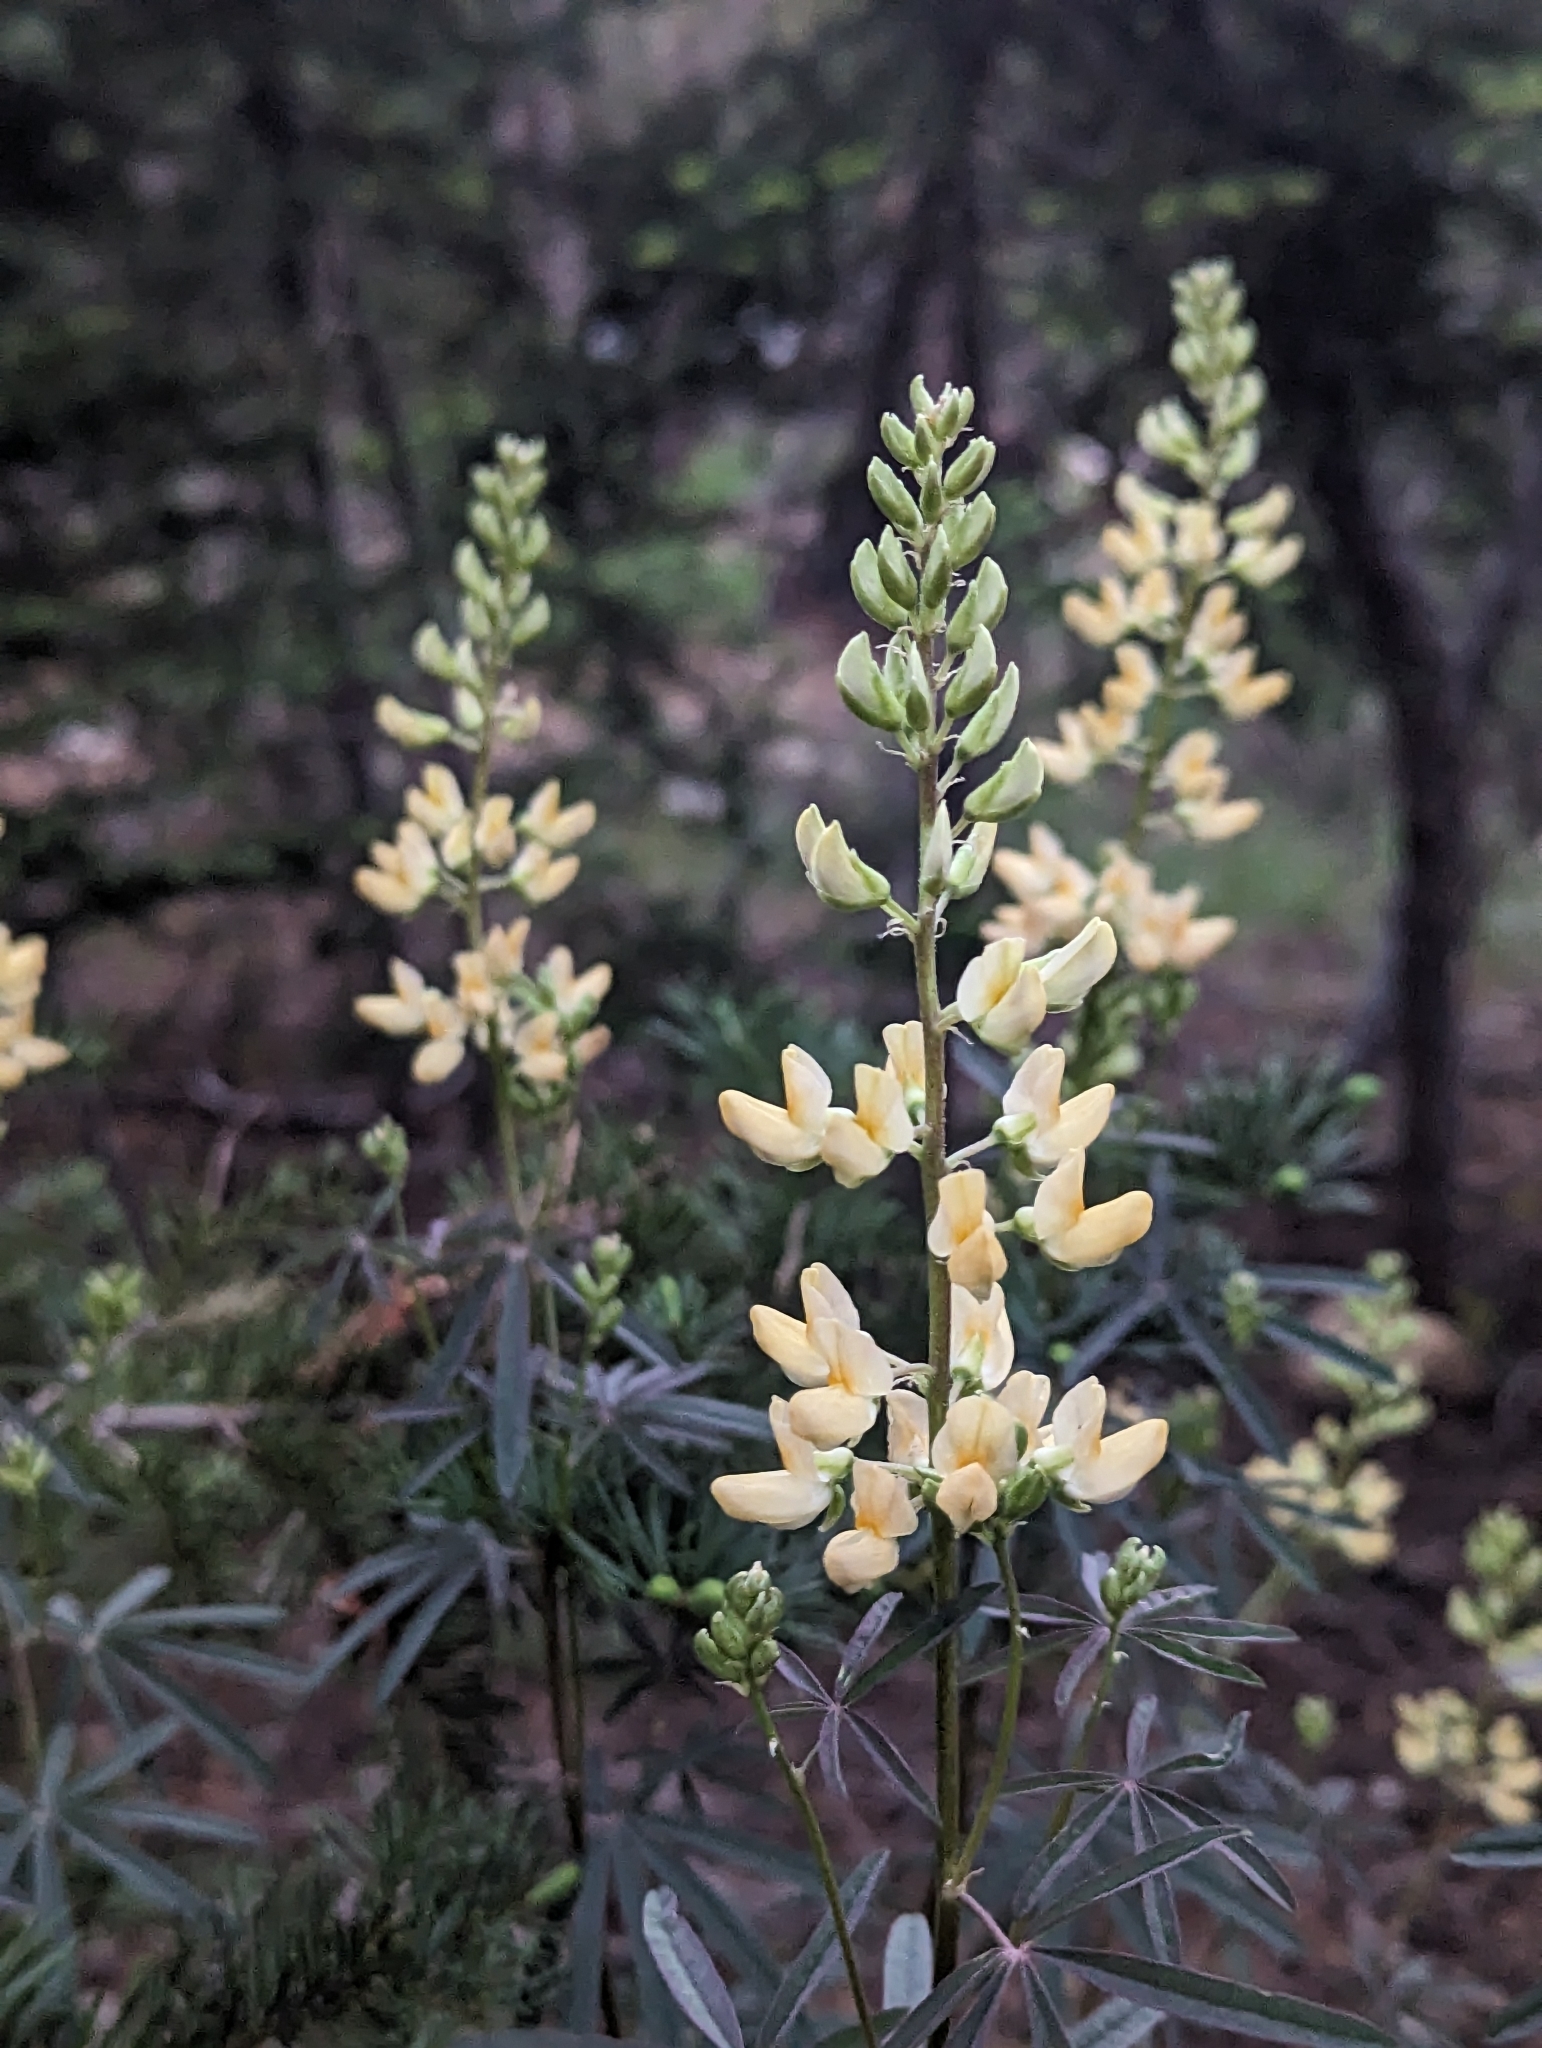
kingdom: Plantae
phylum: Tracheophyta
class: Magnoliopsida
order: Fabales
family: Fabaceae
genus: Lupinus
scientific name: Lupinus angustiflorus
